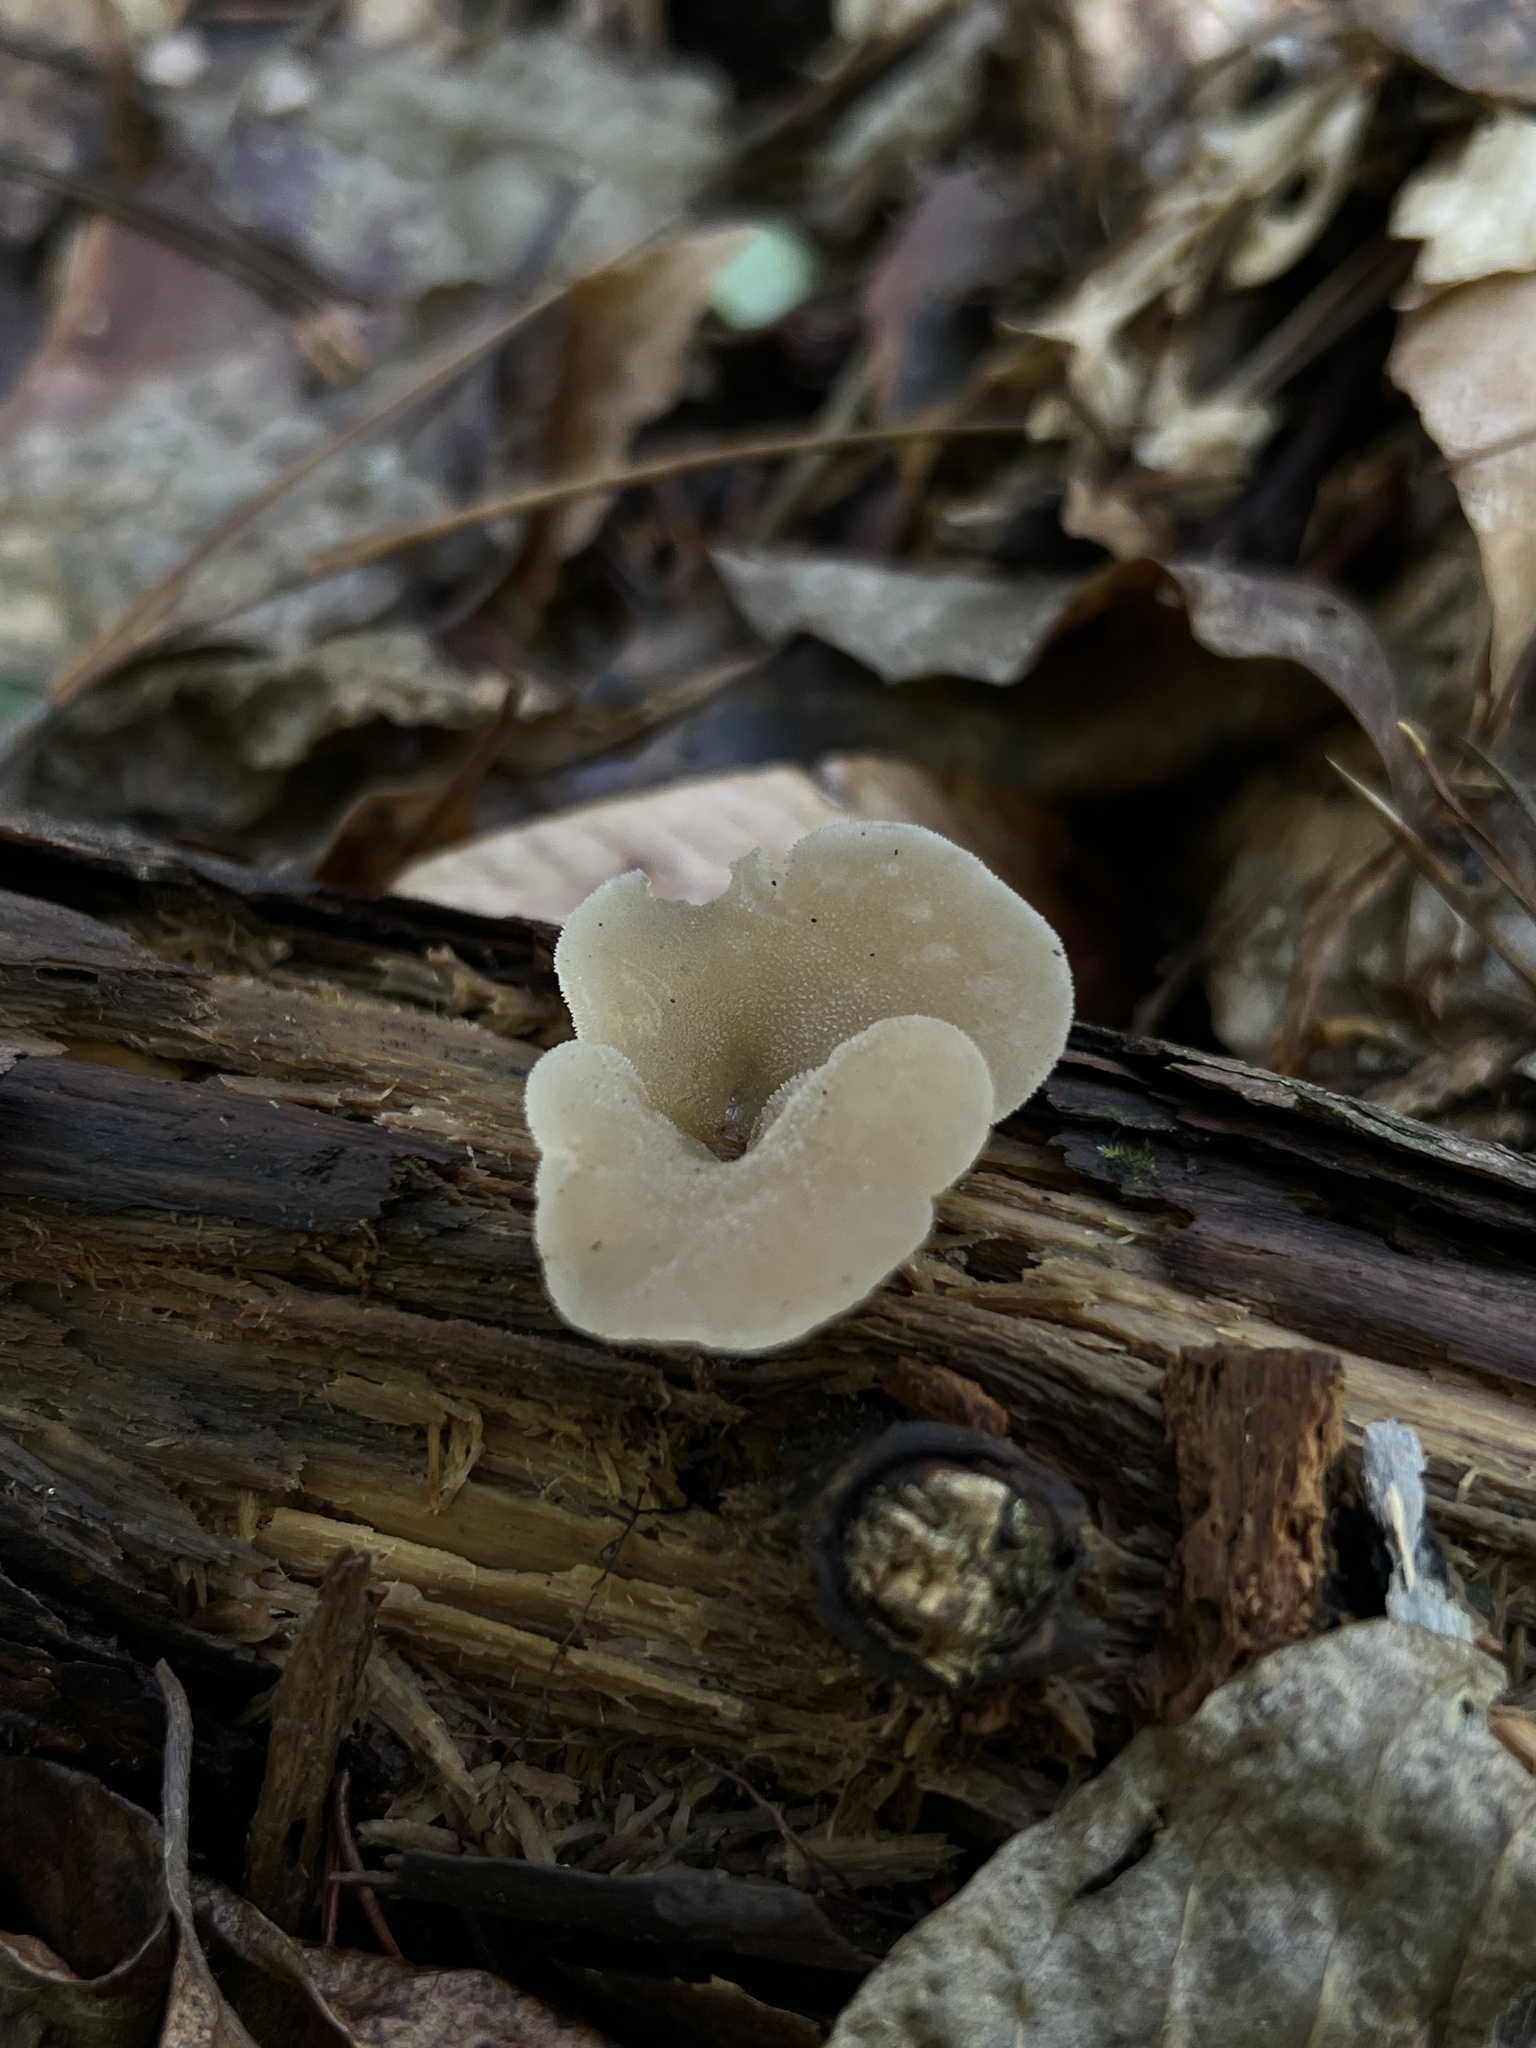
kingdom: Fungi
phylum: Basidiomycota
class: Agaricomycetes
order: Auriculariales
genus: Pseudohydnum
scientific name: Pseudohydnum gelatinosum
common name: Jelly tongue
